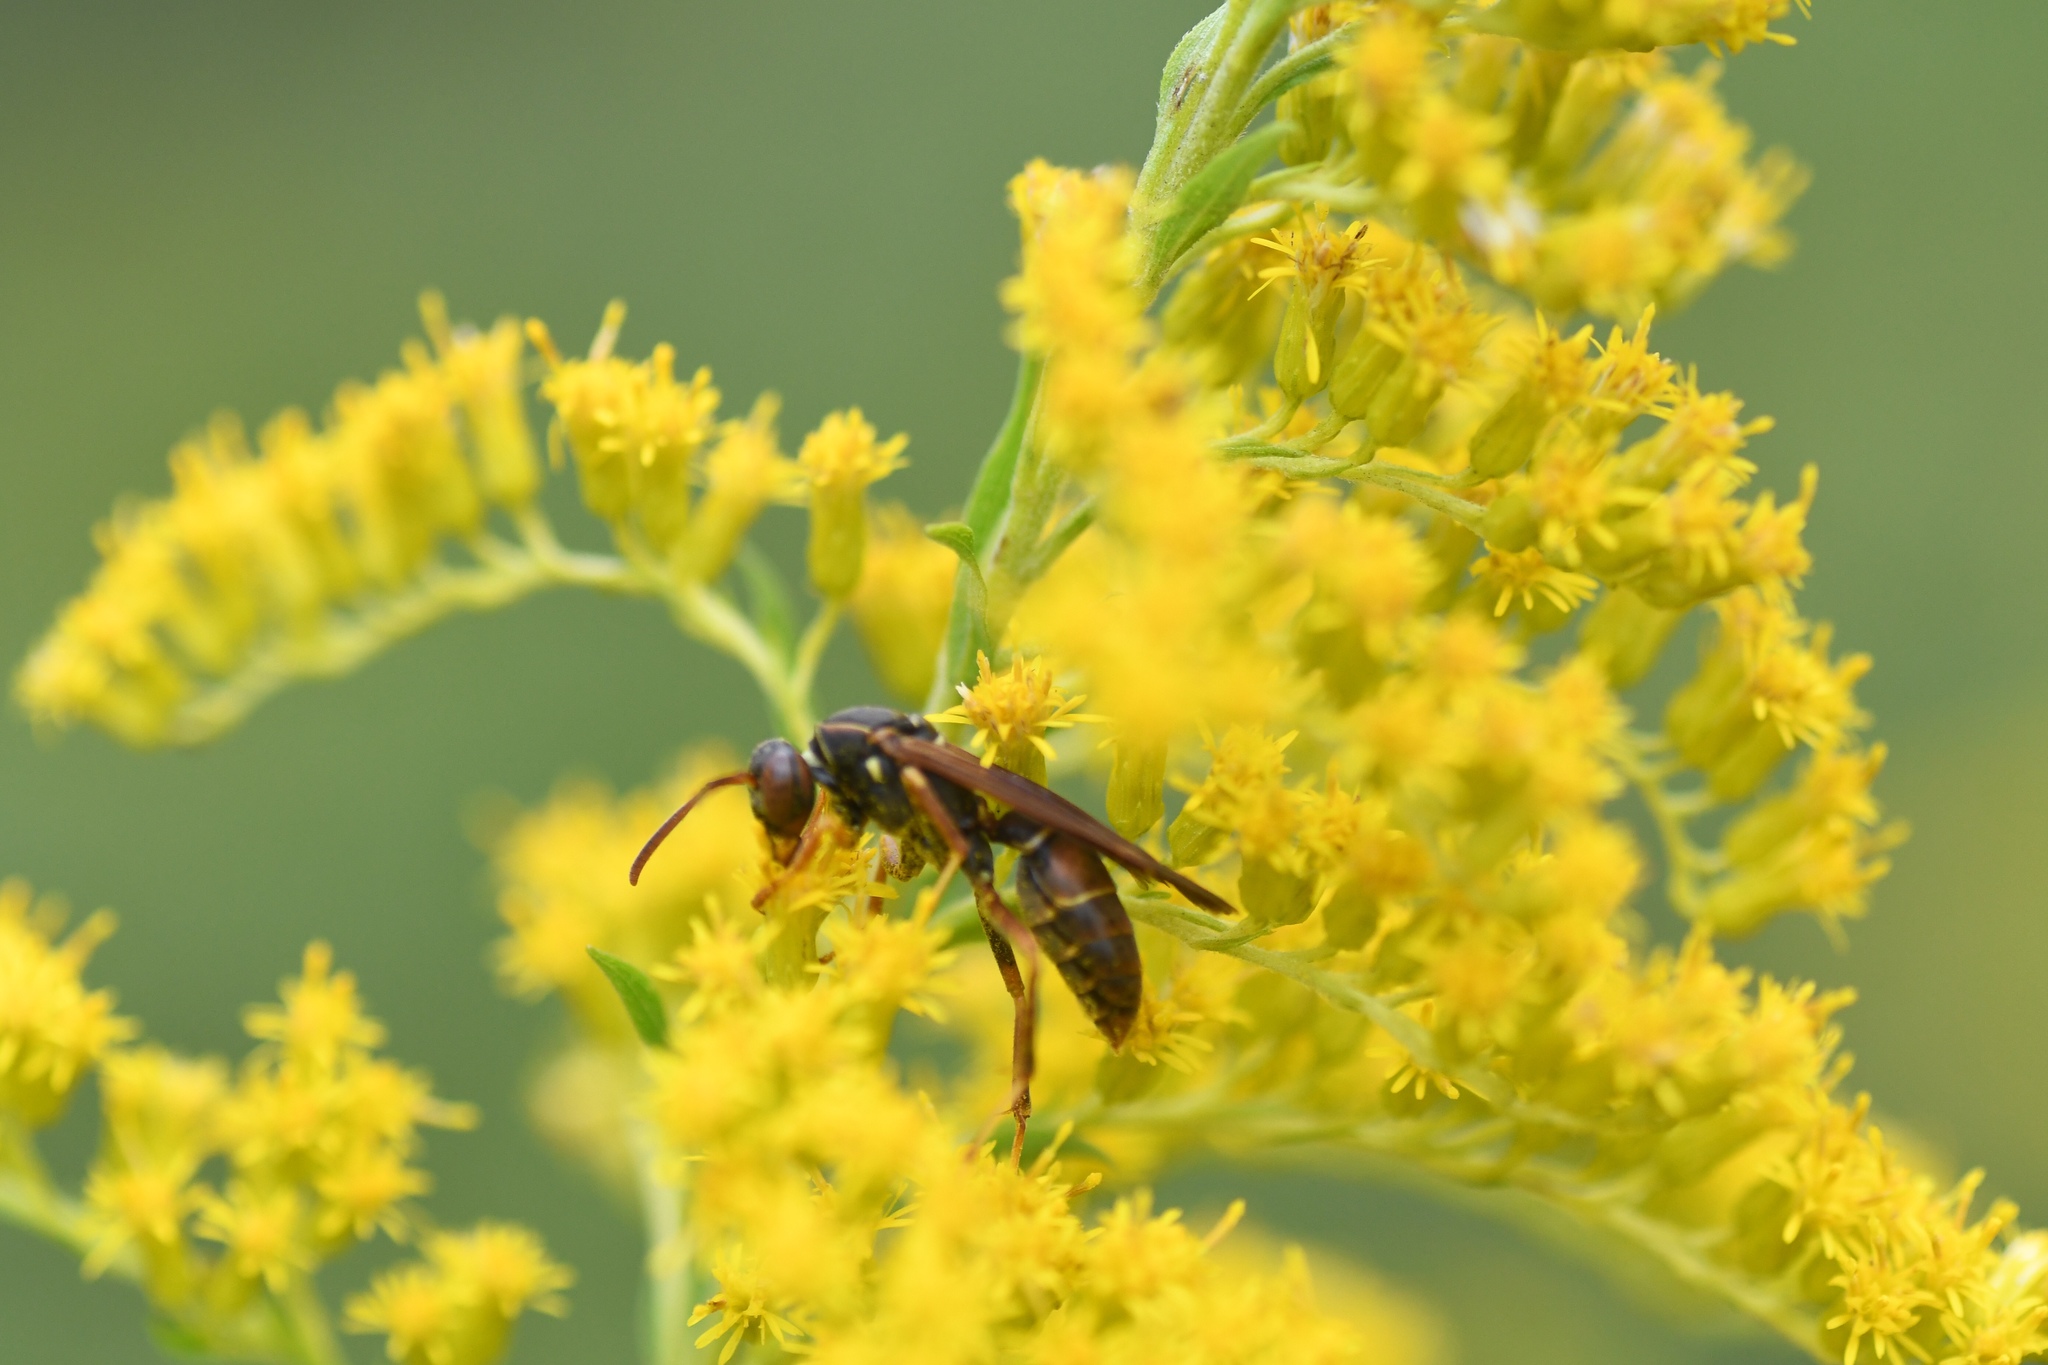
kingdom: Animalia
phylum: Arthropoda
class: Insecta
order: Hymenoptera
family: Eumenidae
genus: Polistes
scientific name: Polistes fuscatus
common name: Dark paper wasp
